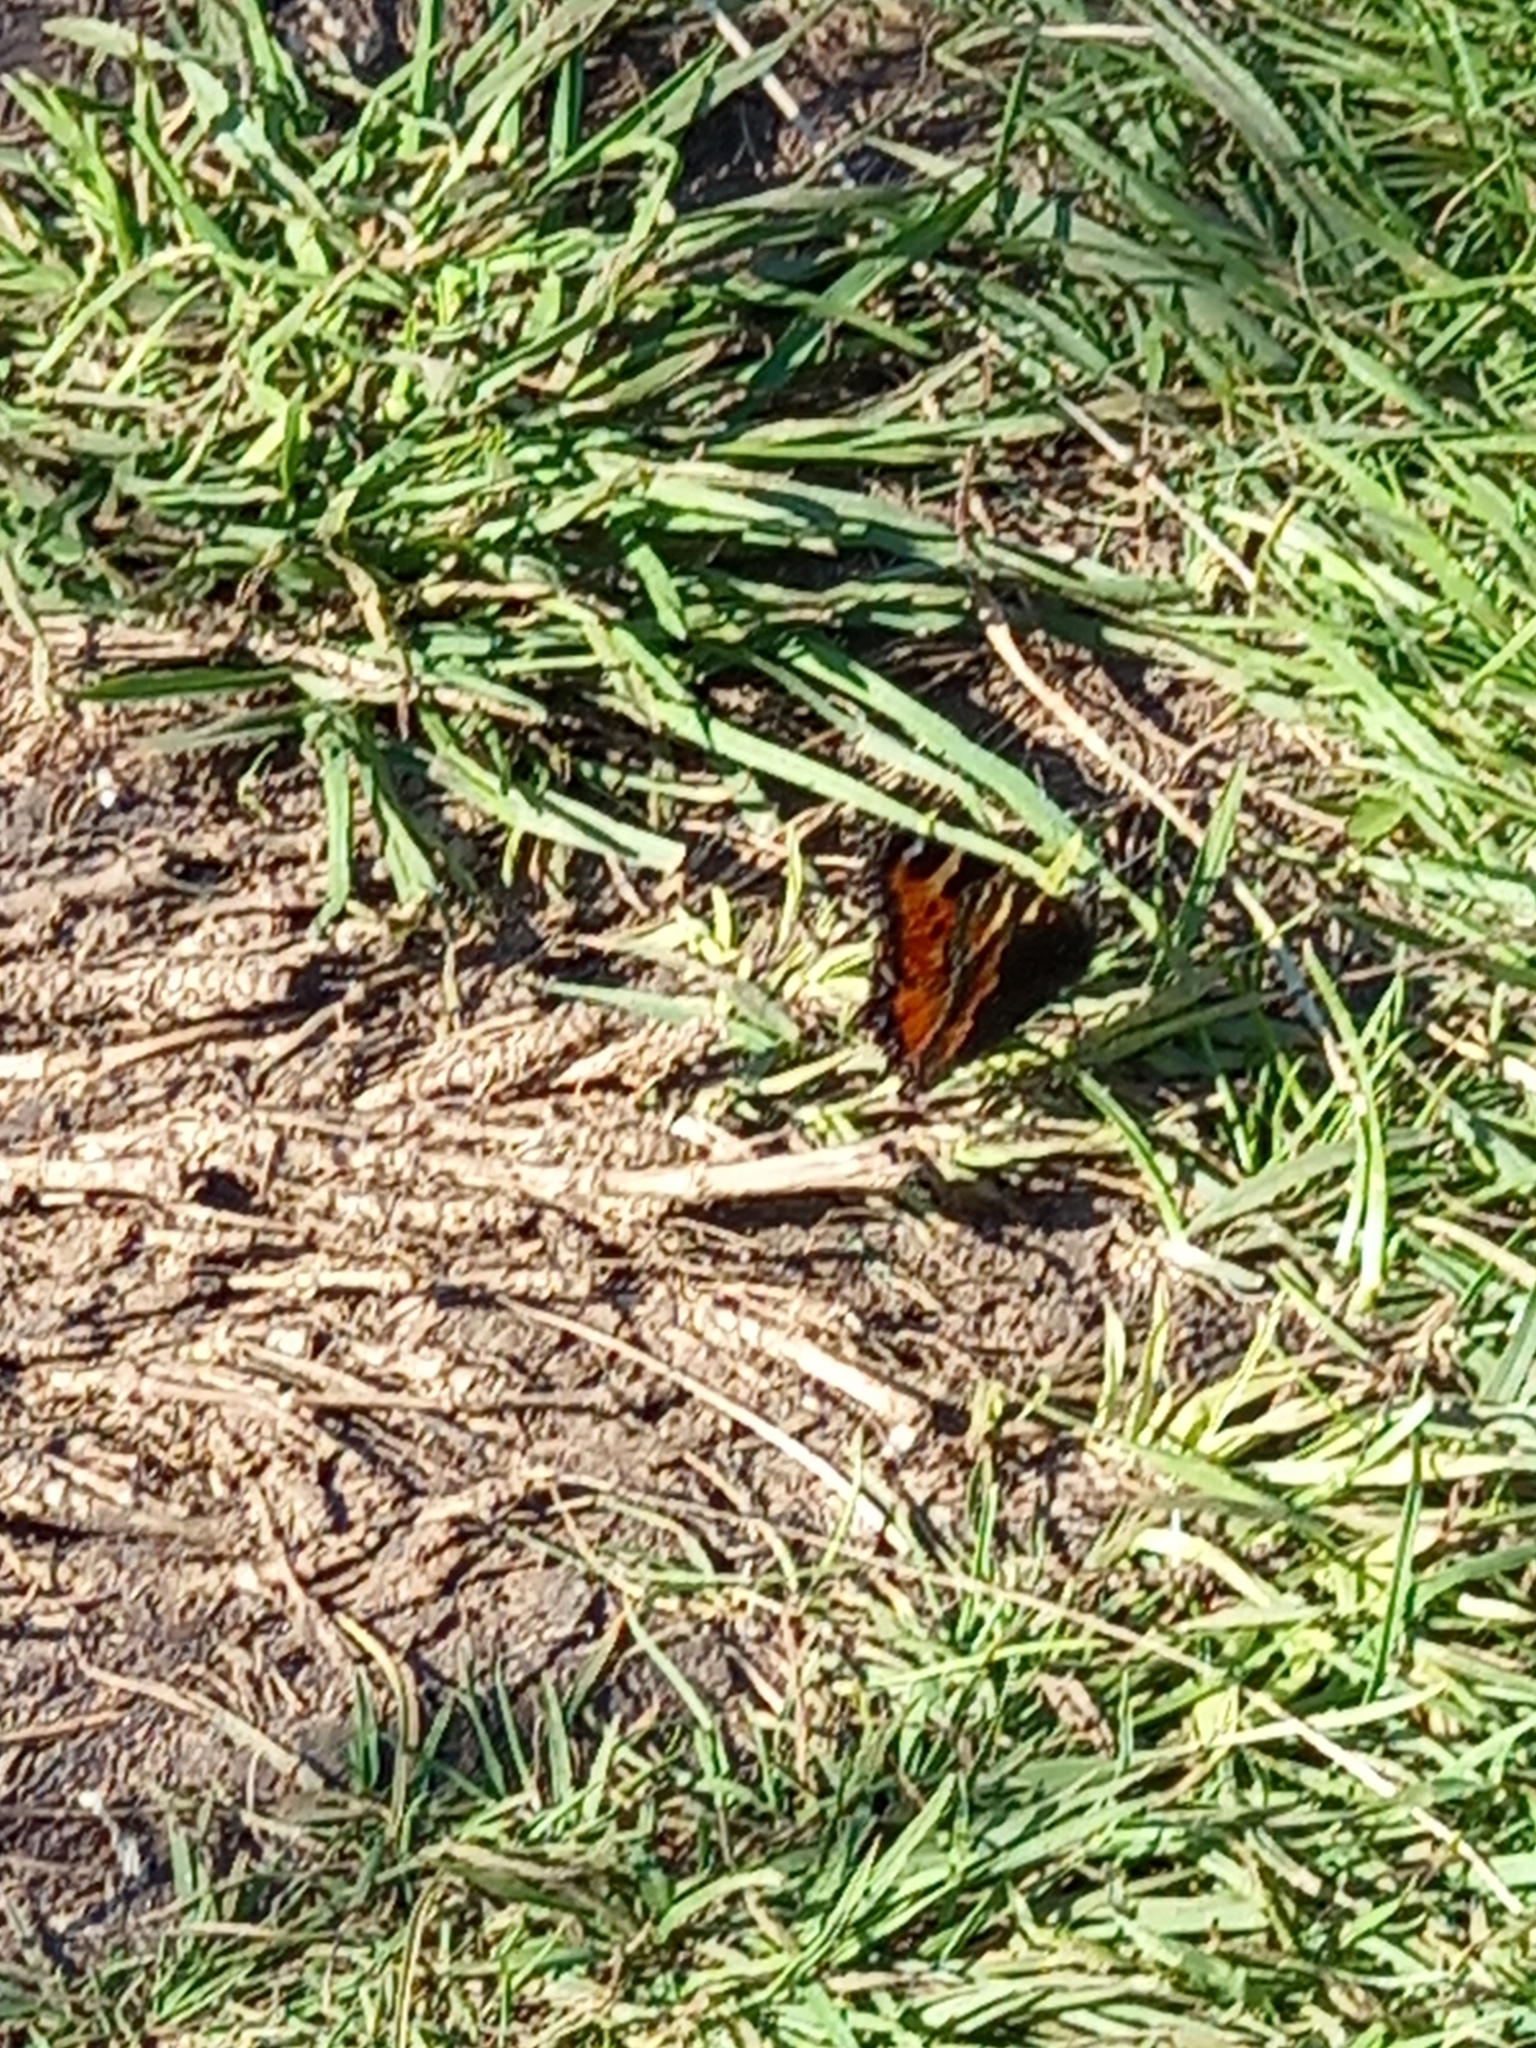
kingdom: Animalia
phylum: Arthropoda
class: Insecta
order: Lepidoptera
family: Nymphalidae
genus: Aglais
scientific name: Aglais urticae
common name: Small tortoiseshell
